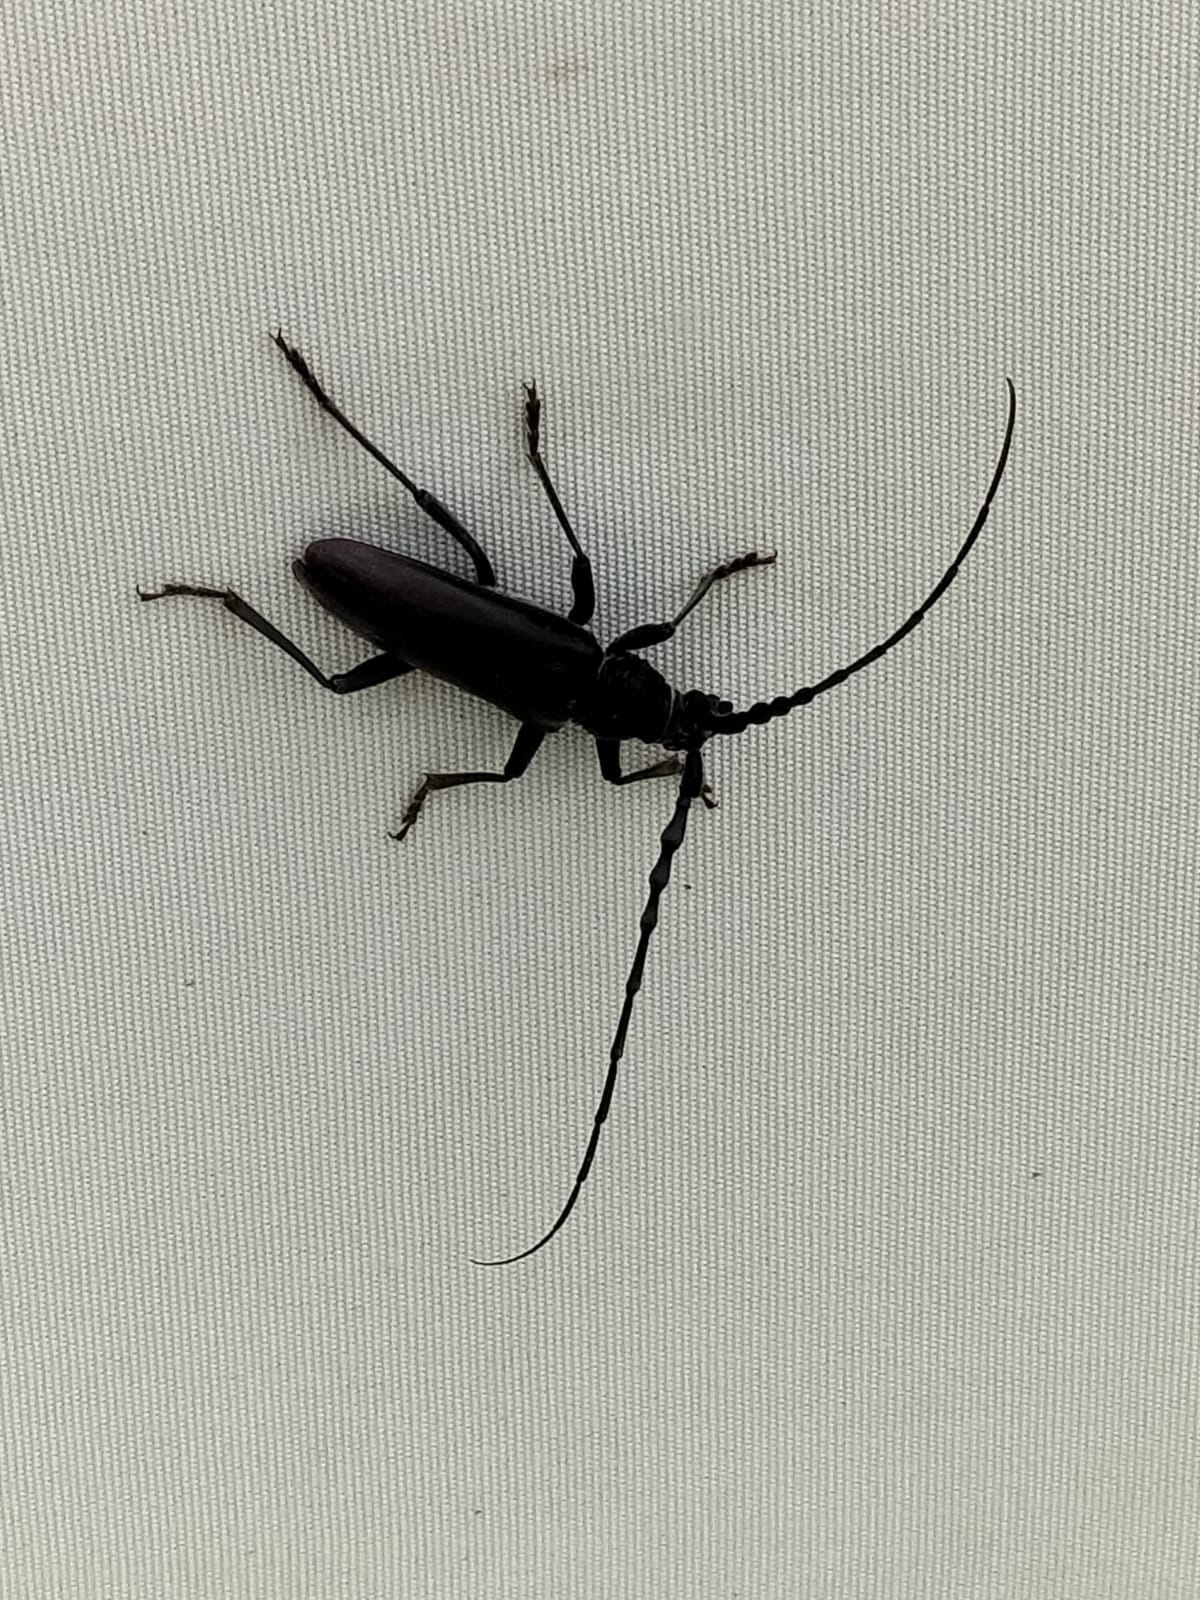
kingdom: Animalia
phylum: Arthropoda
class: Insecta
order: Coleoptera
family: Cerambycidae
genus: Cerambyx
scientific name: Cerambyx scopolii
